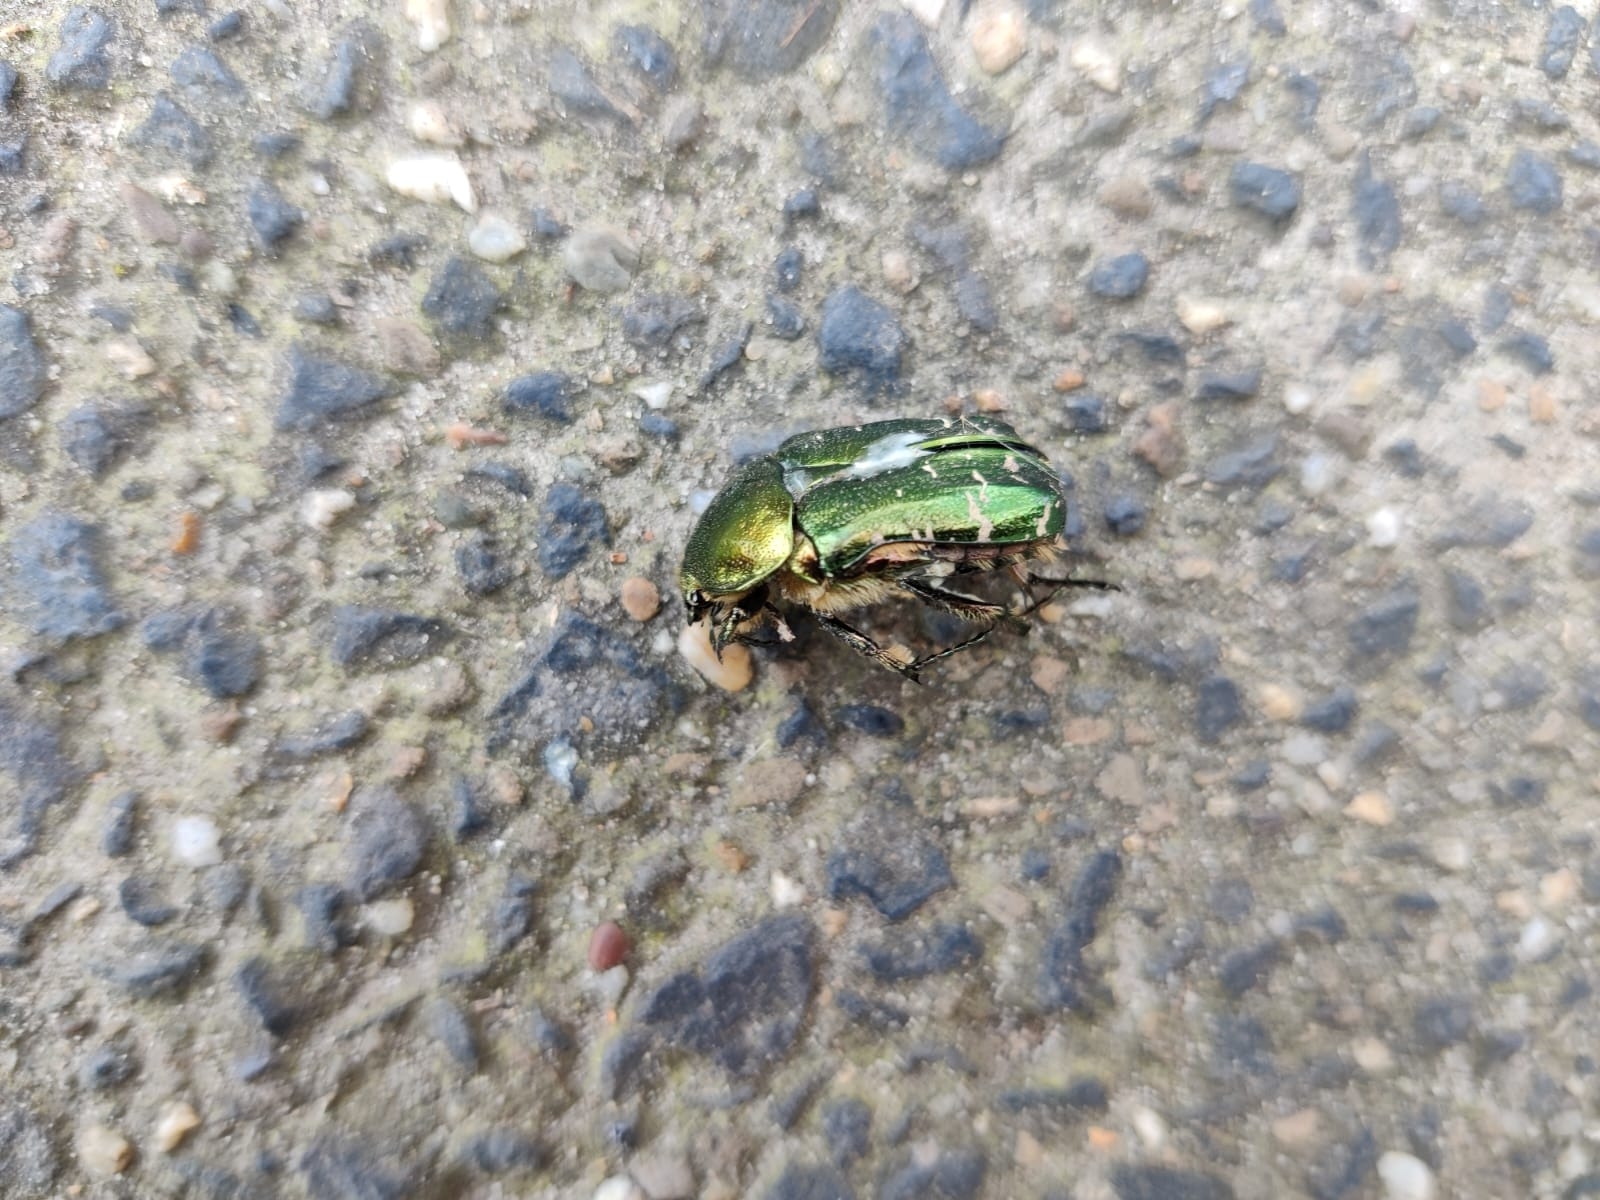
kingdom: Animalia
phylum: Arthropoda
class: Insecta
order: Coleoptera
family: Scarabaeidae
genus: Cetonia
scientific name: Cetonia aurata
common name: Rose chafer
